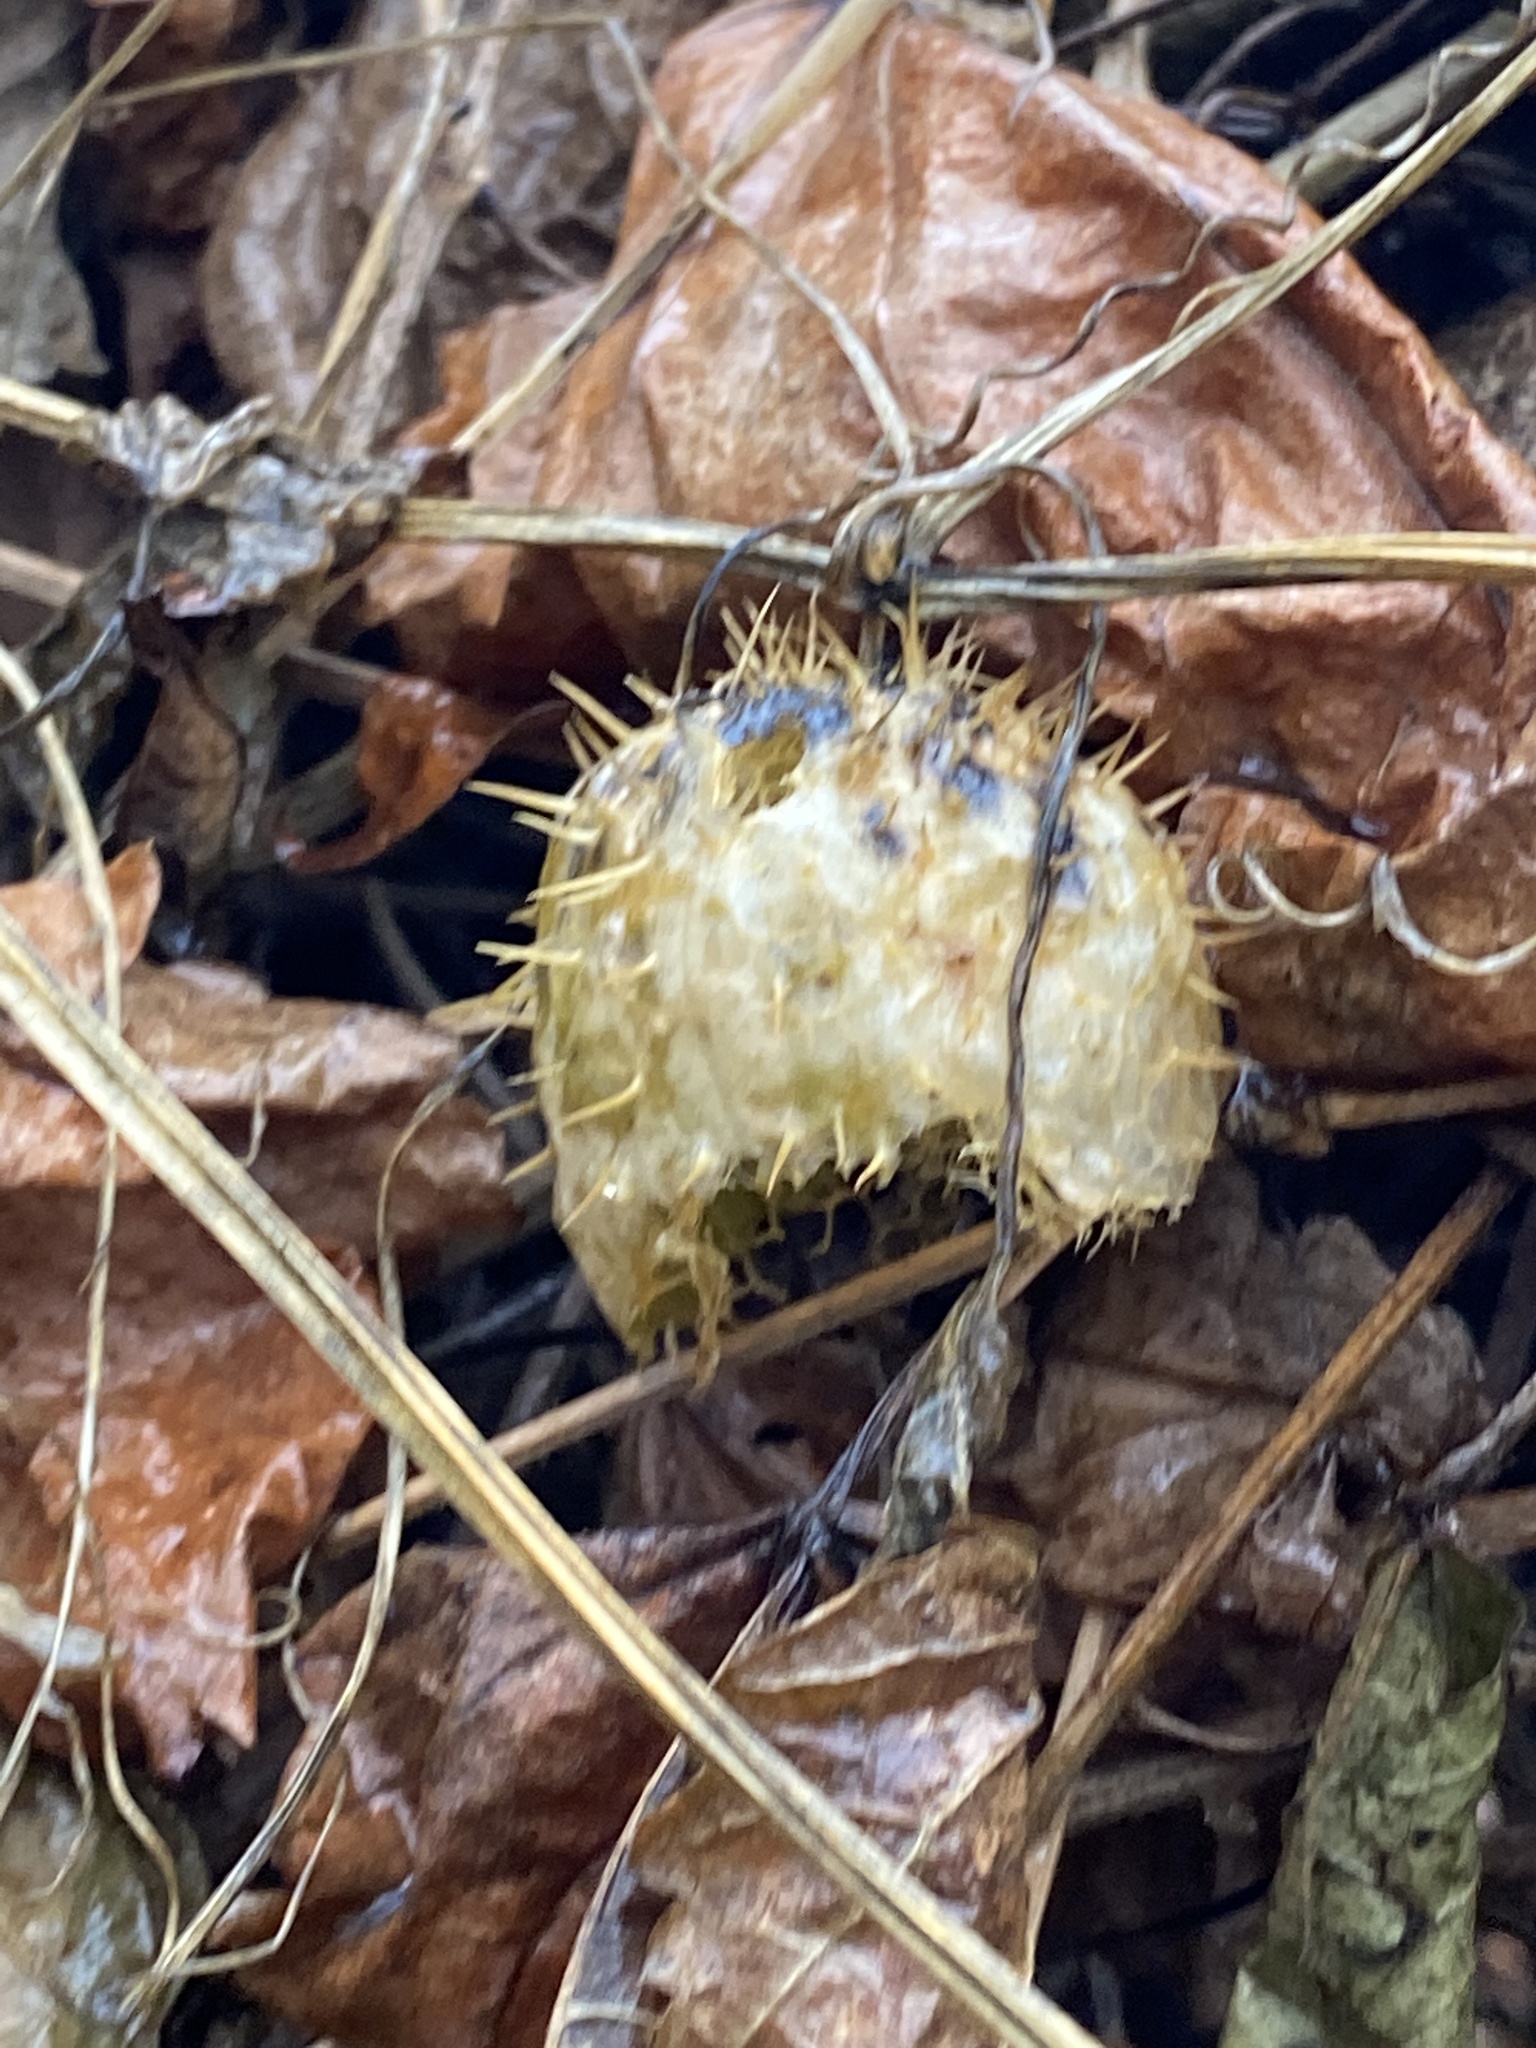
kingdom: Plantae
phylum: Tracheophyta
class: Magnoliopsida
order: Cucurbitales
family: Cucurbitaceae
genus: Echinocystis
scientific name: Echinocystis lobata
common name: Wild cucumber
